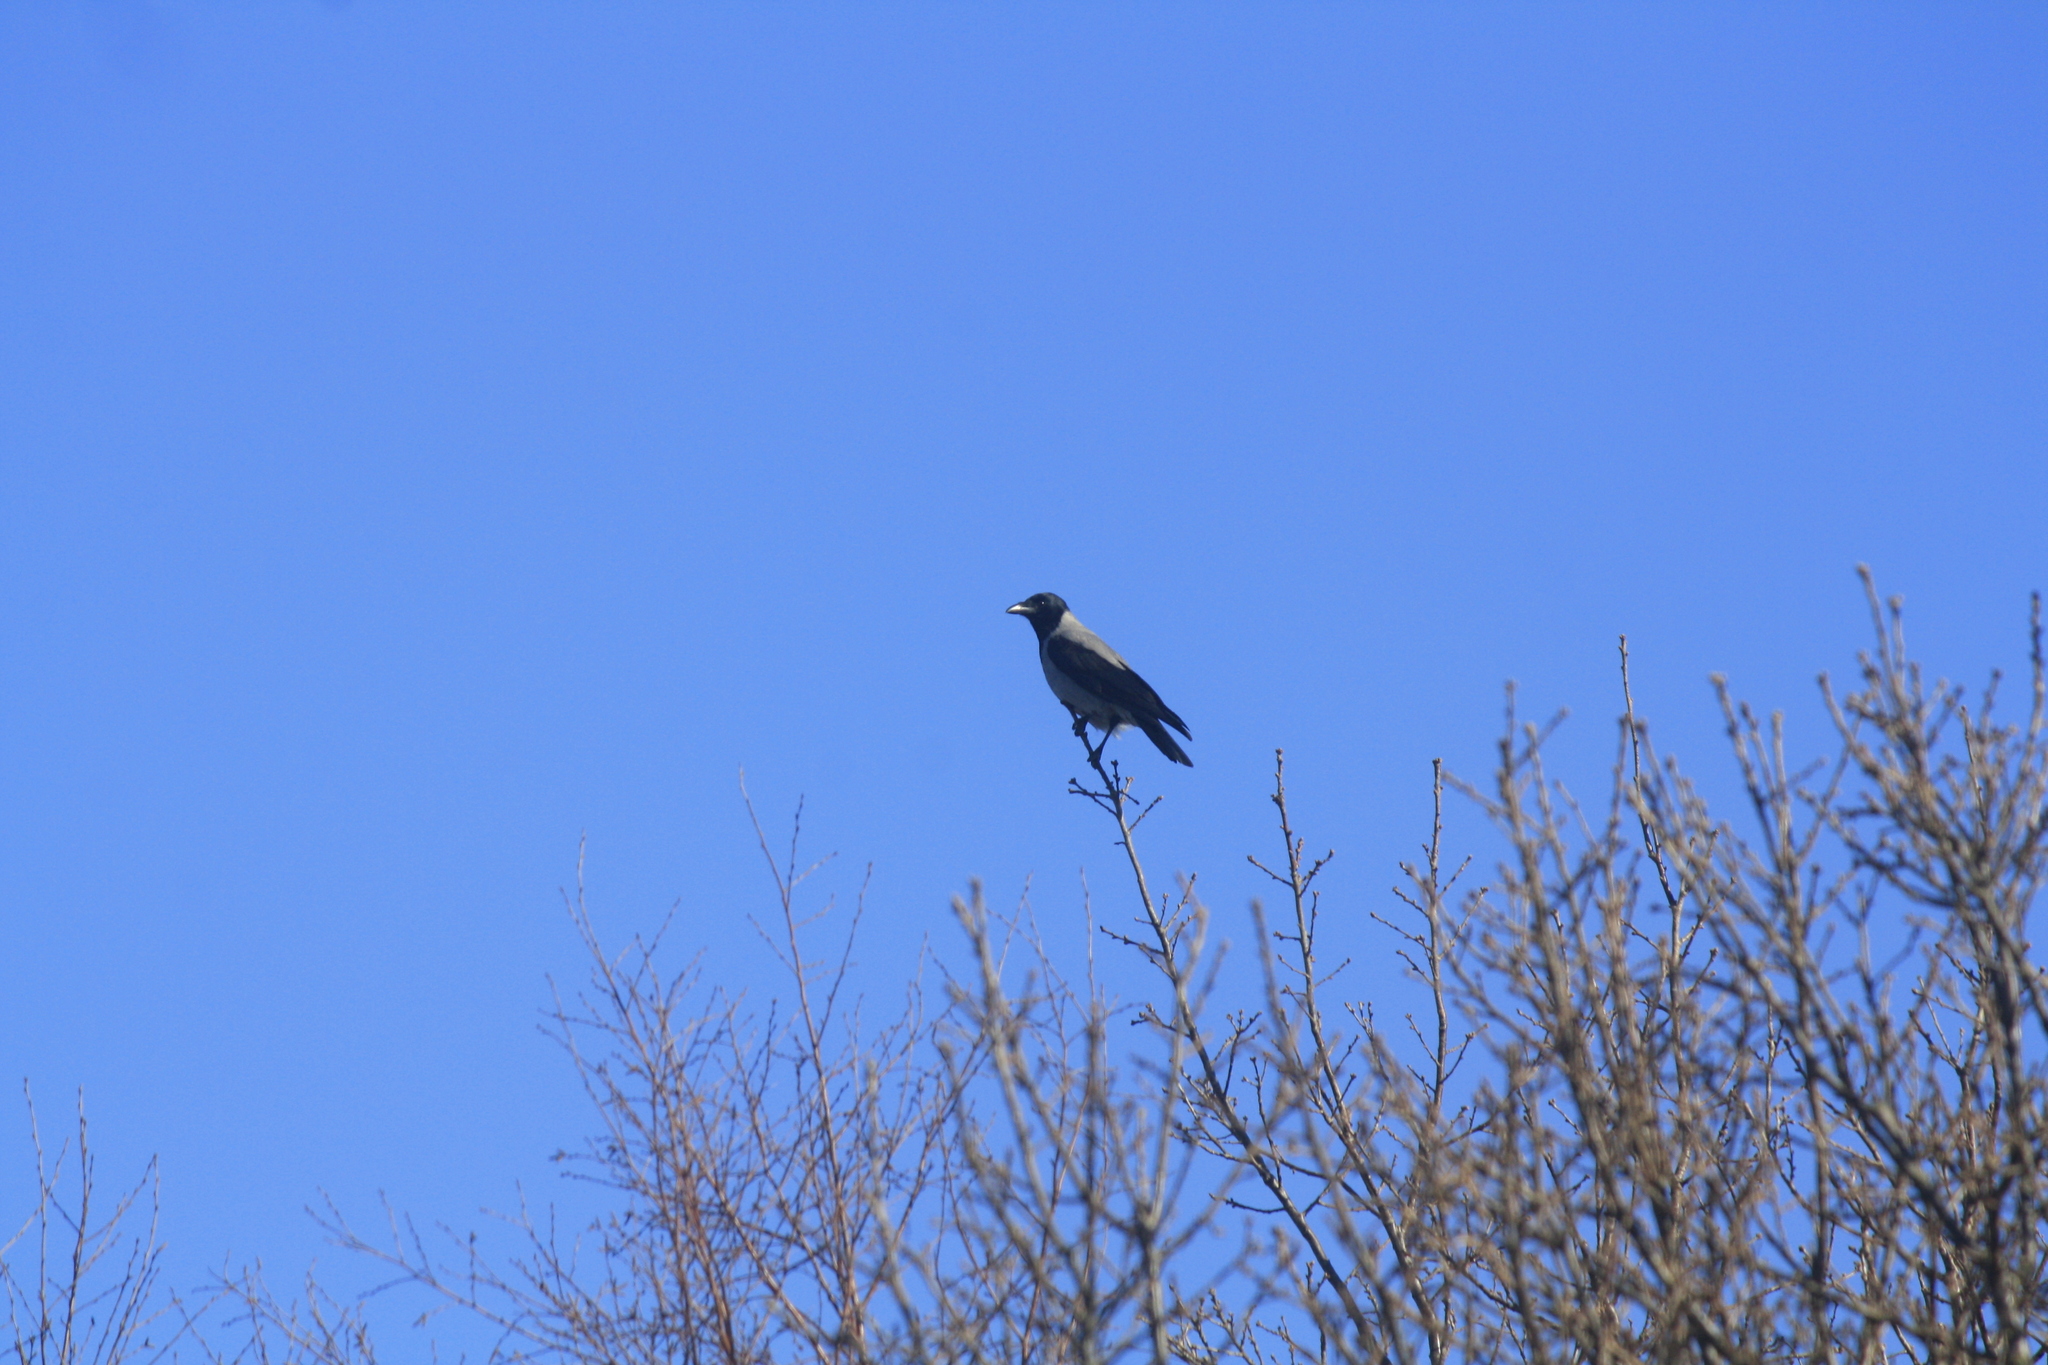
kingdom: Animalia
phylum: Chordata
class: Aves
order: Passeriformes
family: Corvidae
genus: Corvus
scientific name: Corvus cornix
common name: Hooded crow
